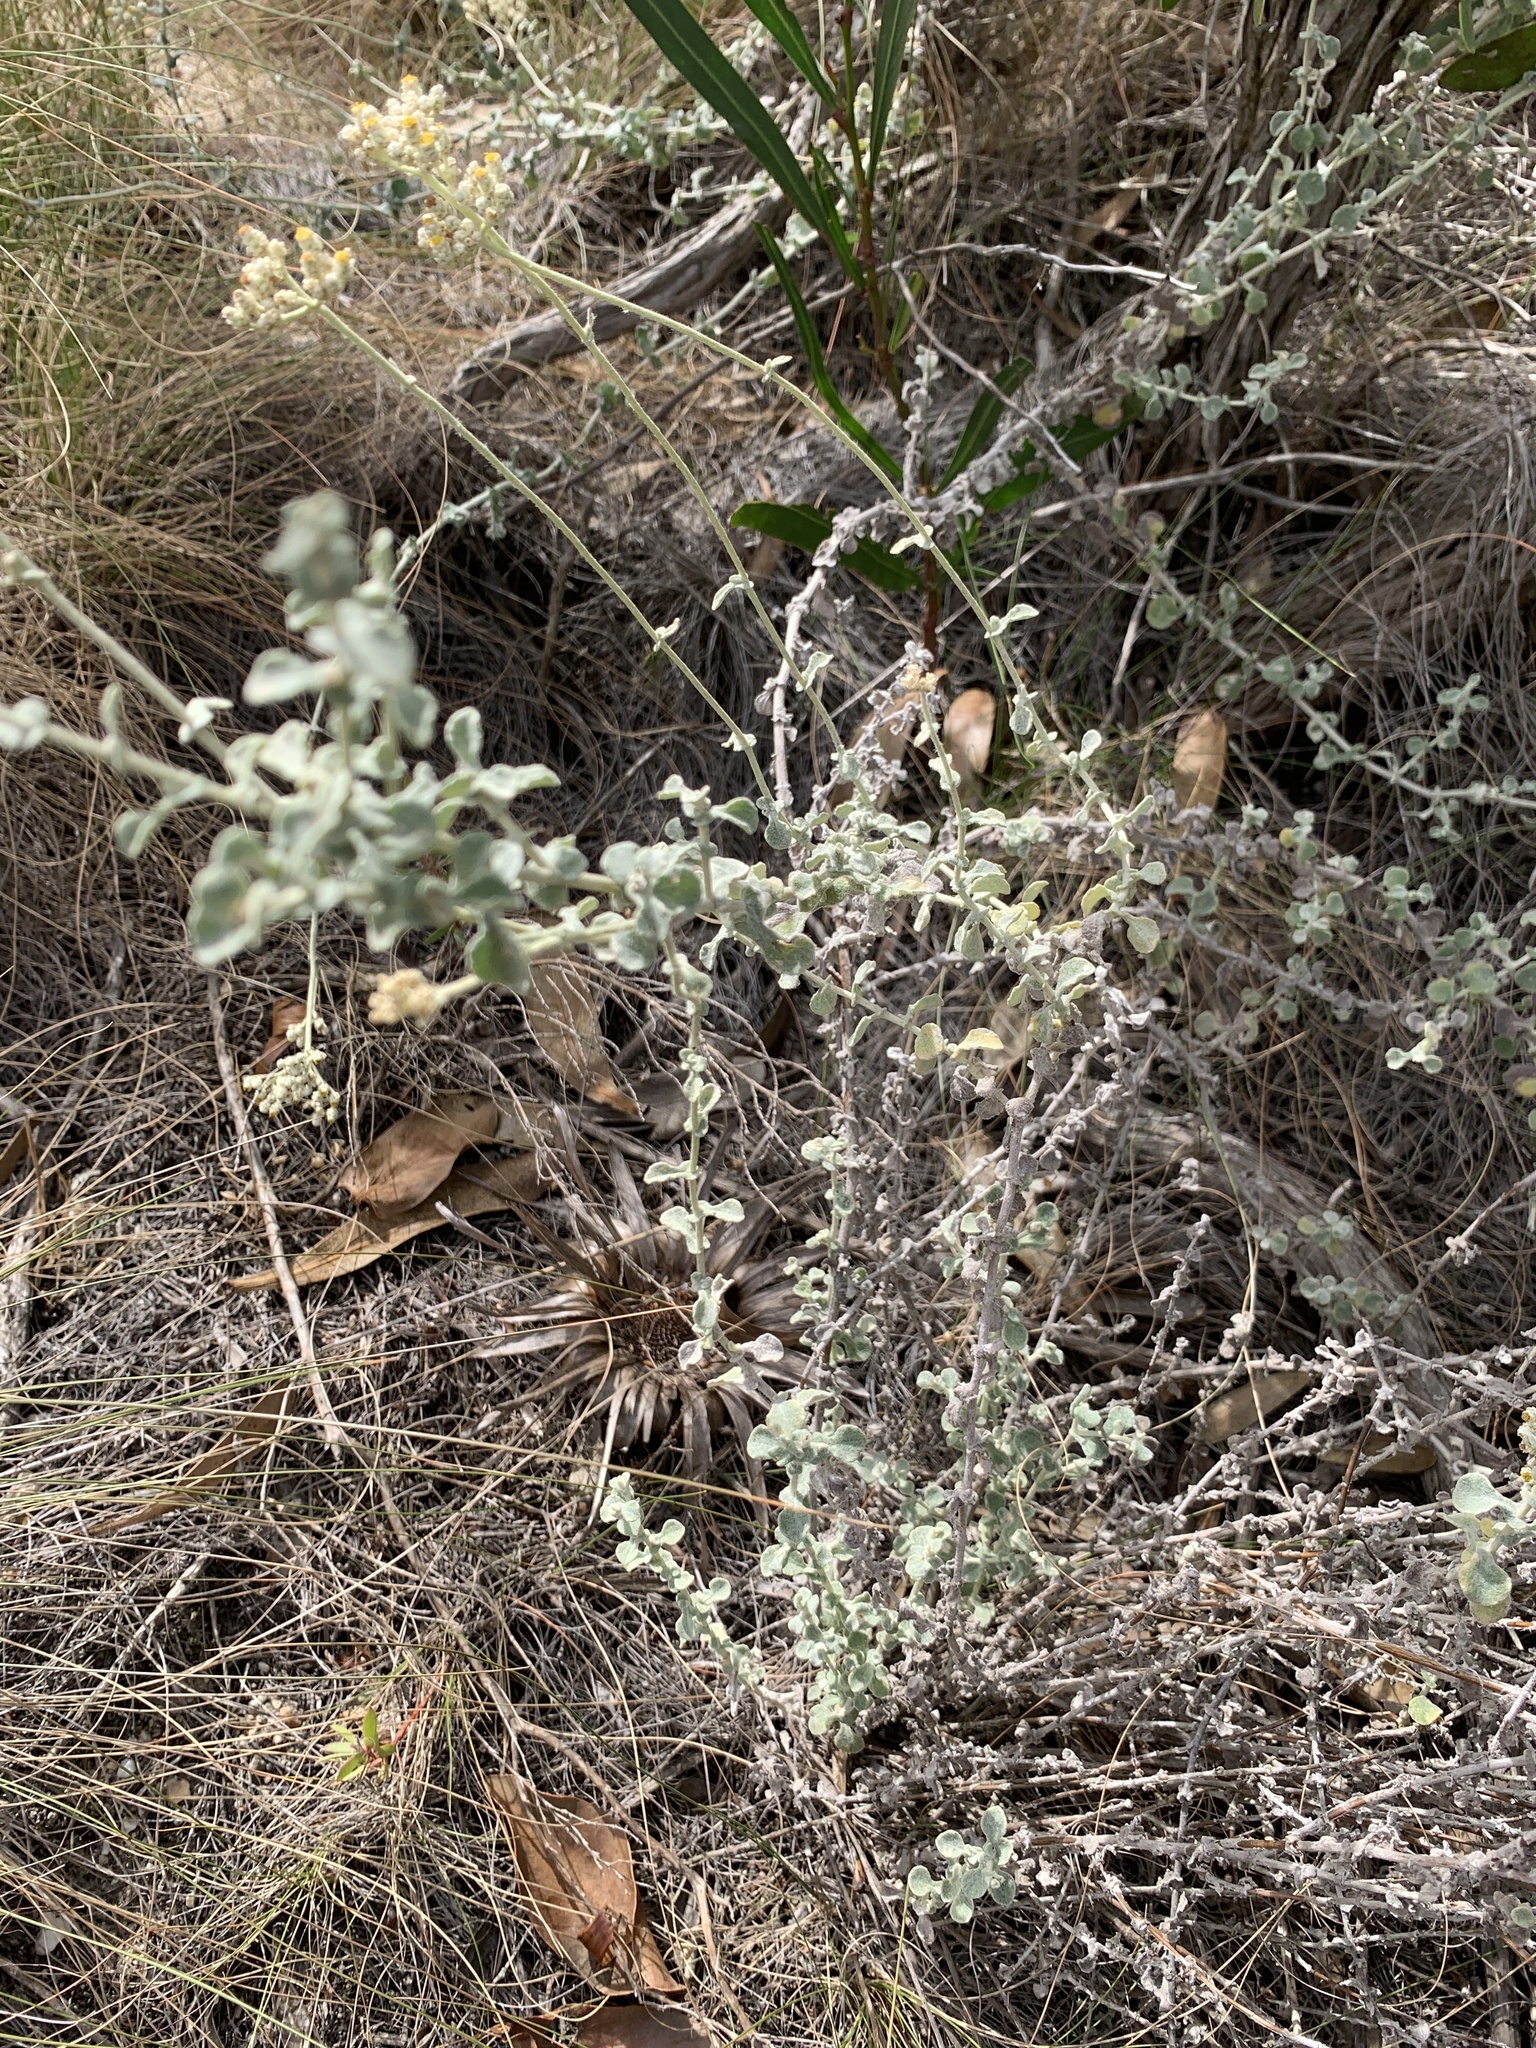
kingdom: Plantae
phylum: Tracheophyta
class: Magnoliopsida
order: Asterales
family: Asteraceae
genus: Helichrysum
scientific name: Helichrysum patulum
